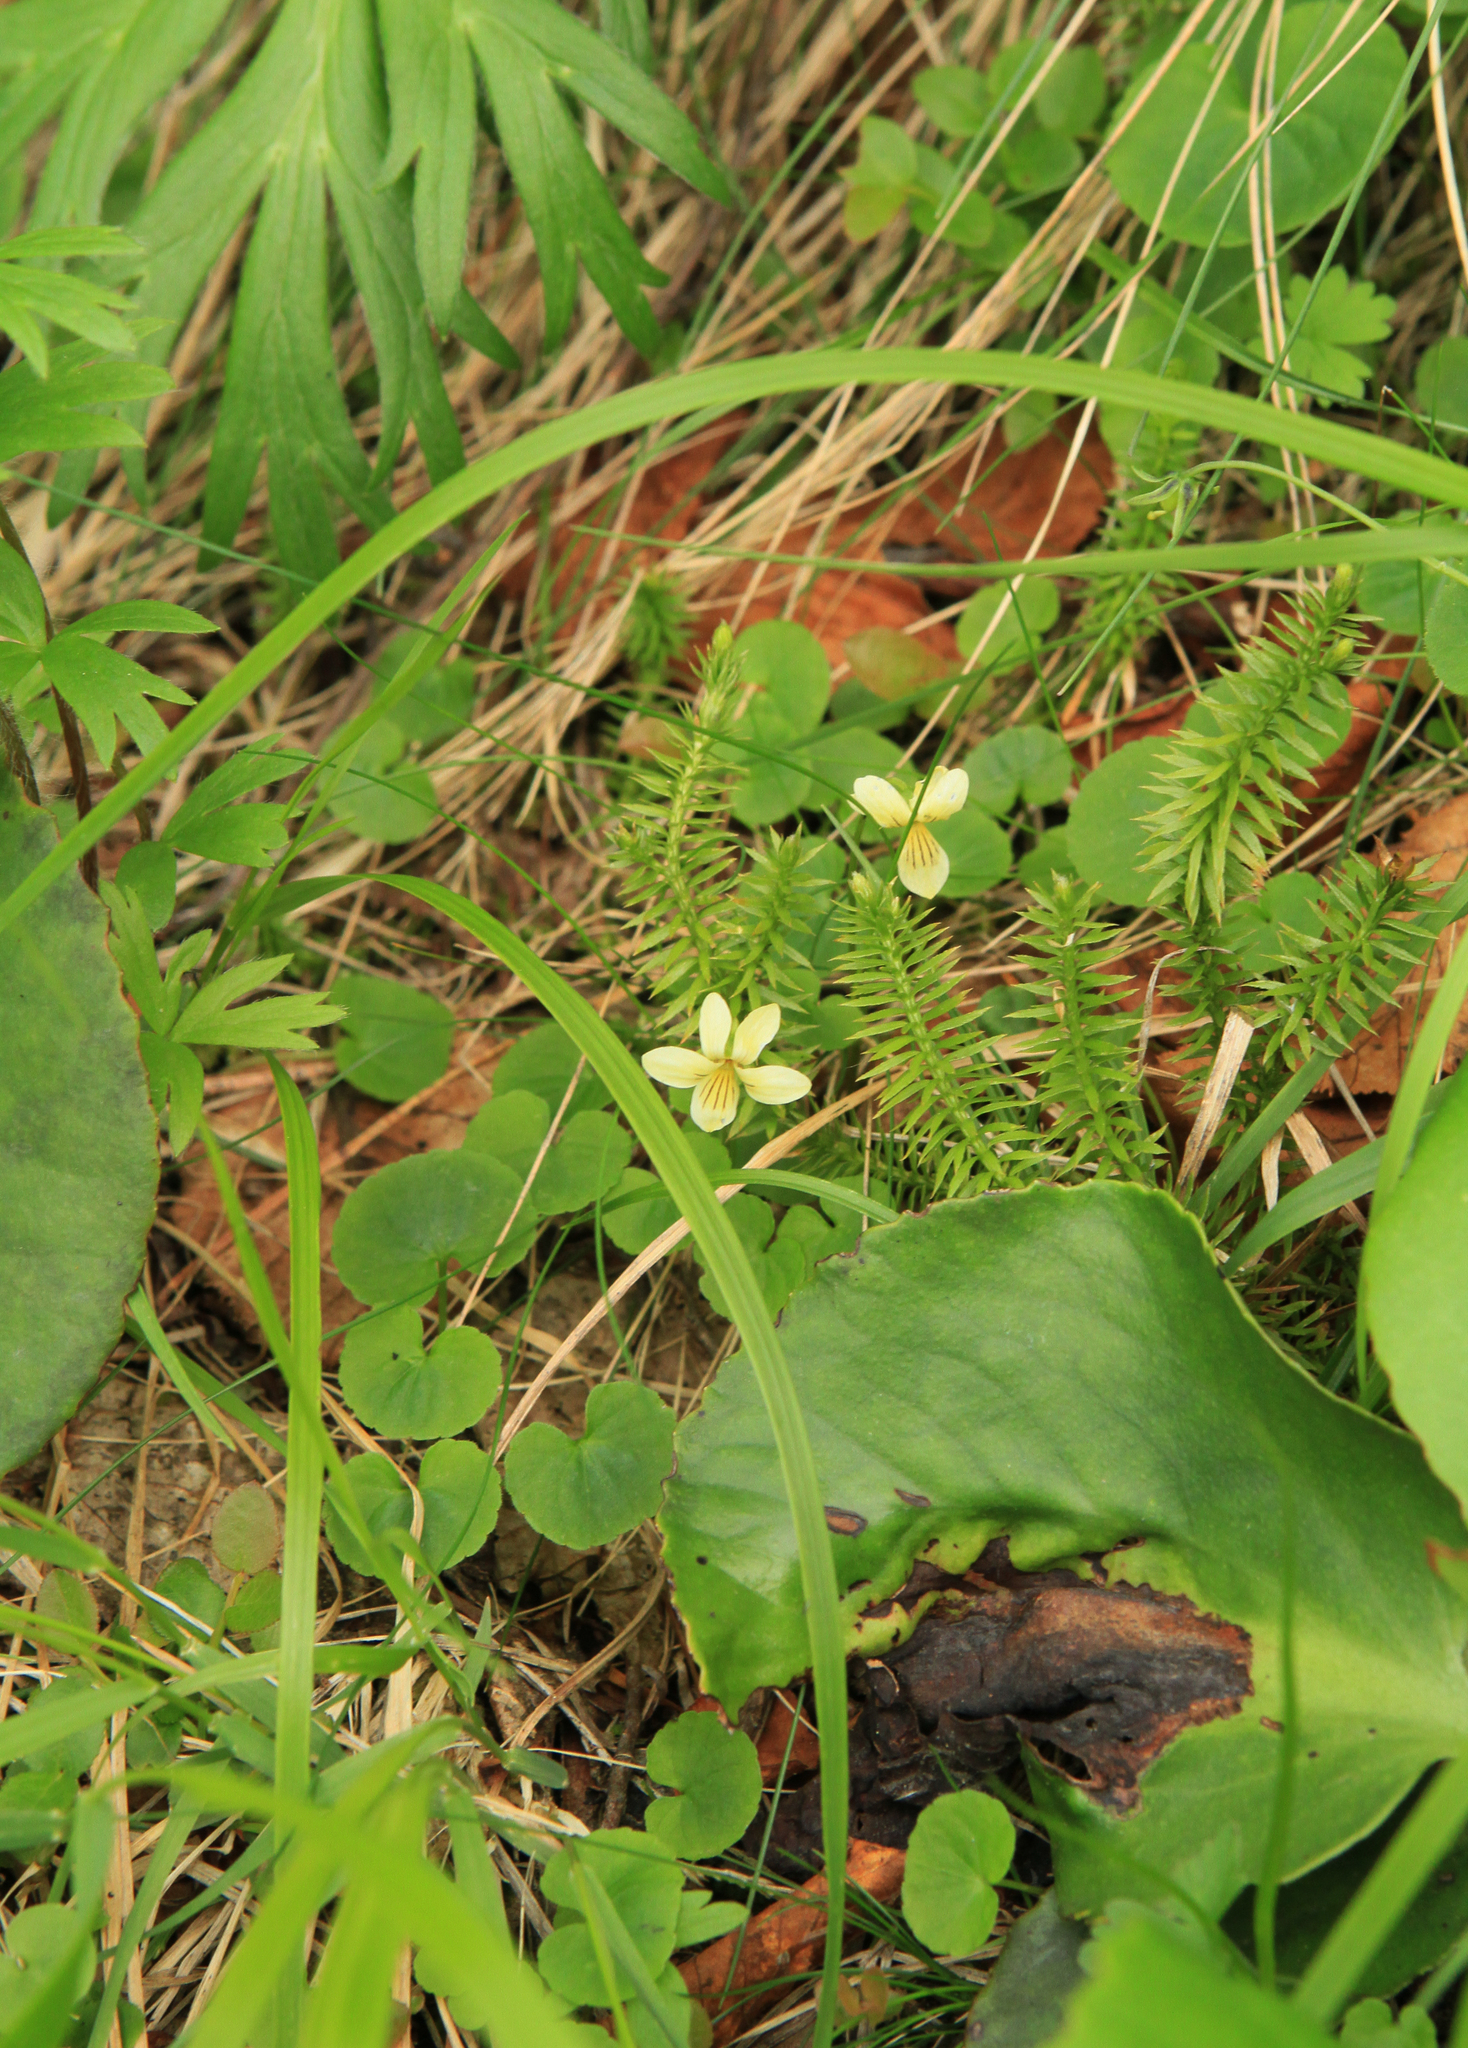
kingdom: Plantae
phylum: Tracheophyta
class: Magnoliopsida
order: Malpighiales
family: Violaceae
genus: Viola
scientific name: Viola biflora
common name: Alpine yellow violet
